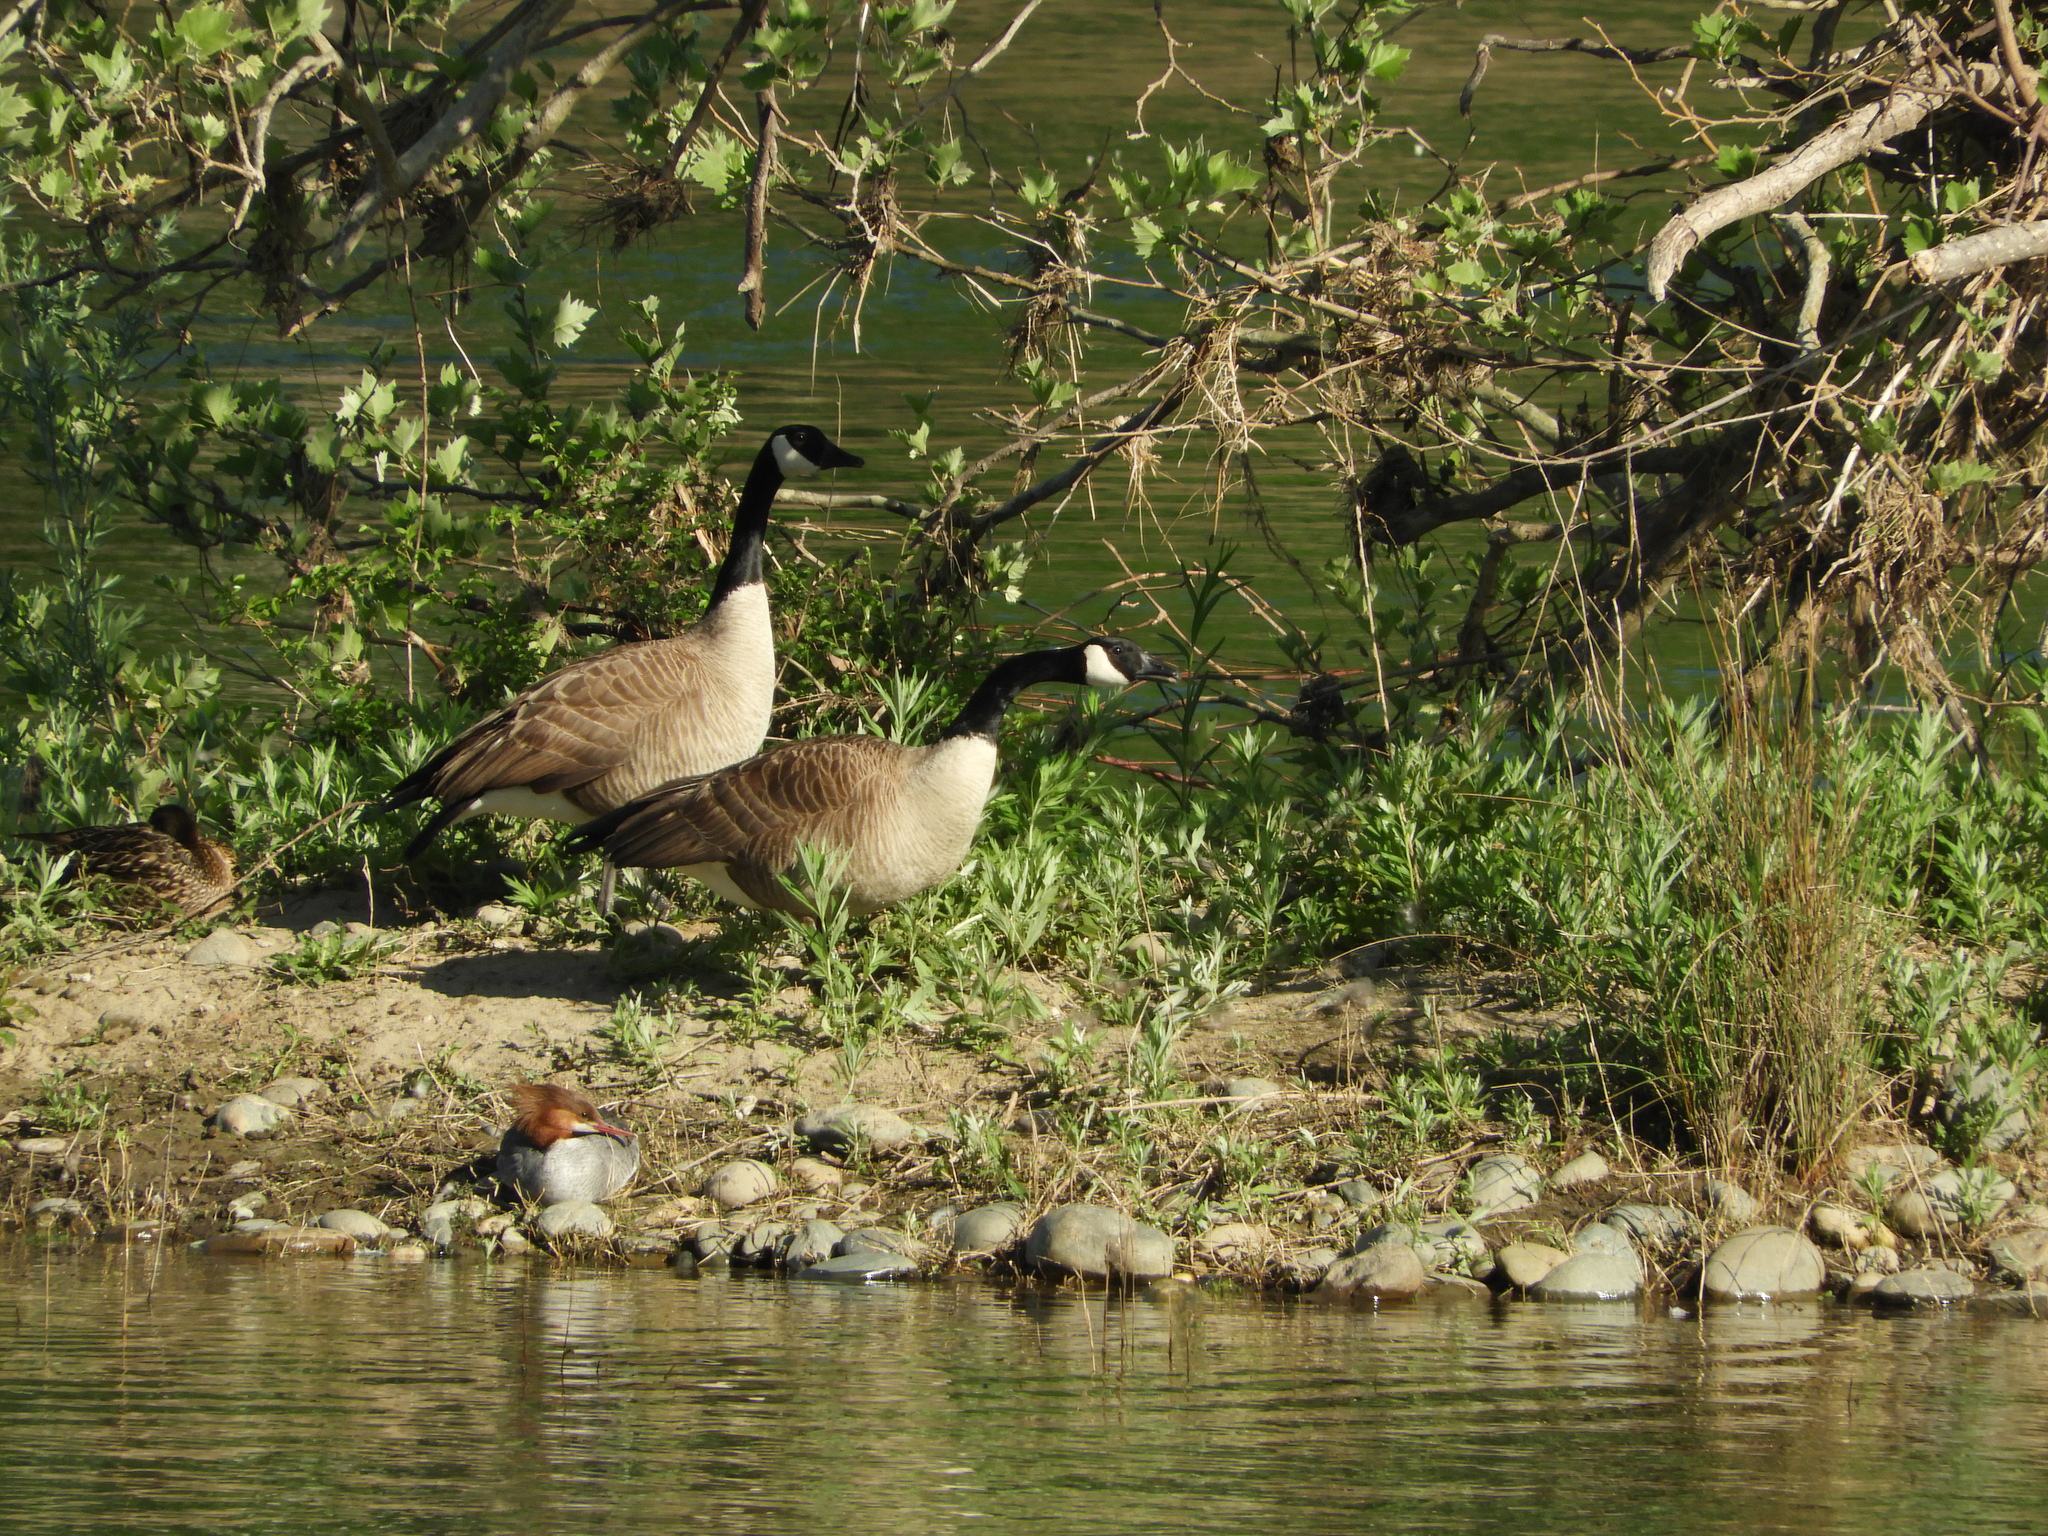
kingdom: Animalia
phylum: Chordata
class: Aves
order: Anseriformes
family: Anatidae
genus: Branta
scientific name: Branta canadensis
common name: Canada goose
